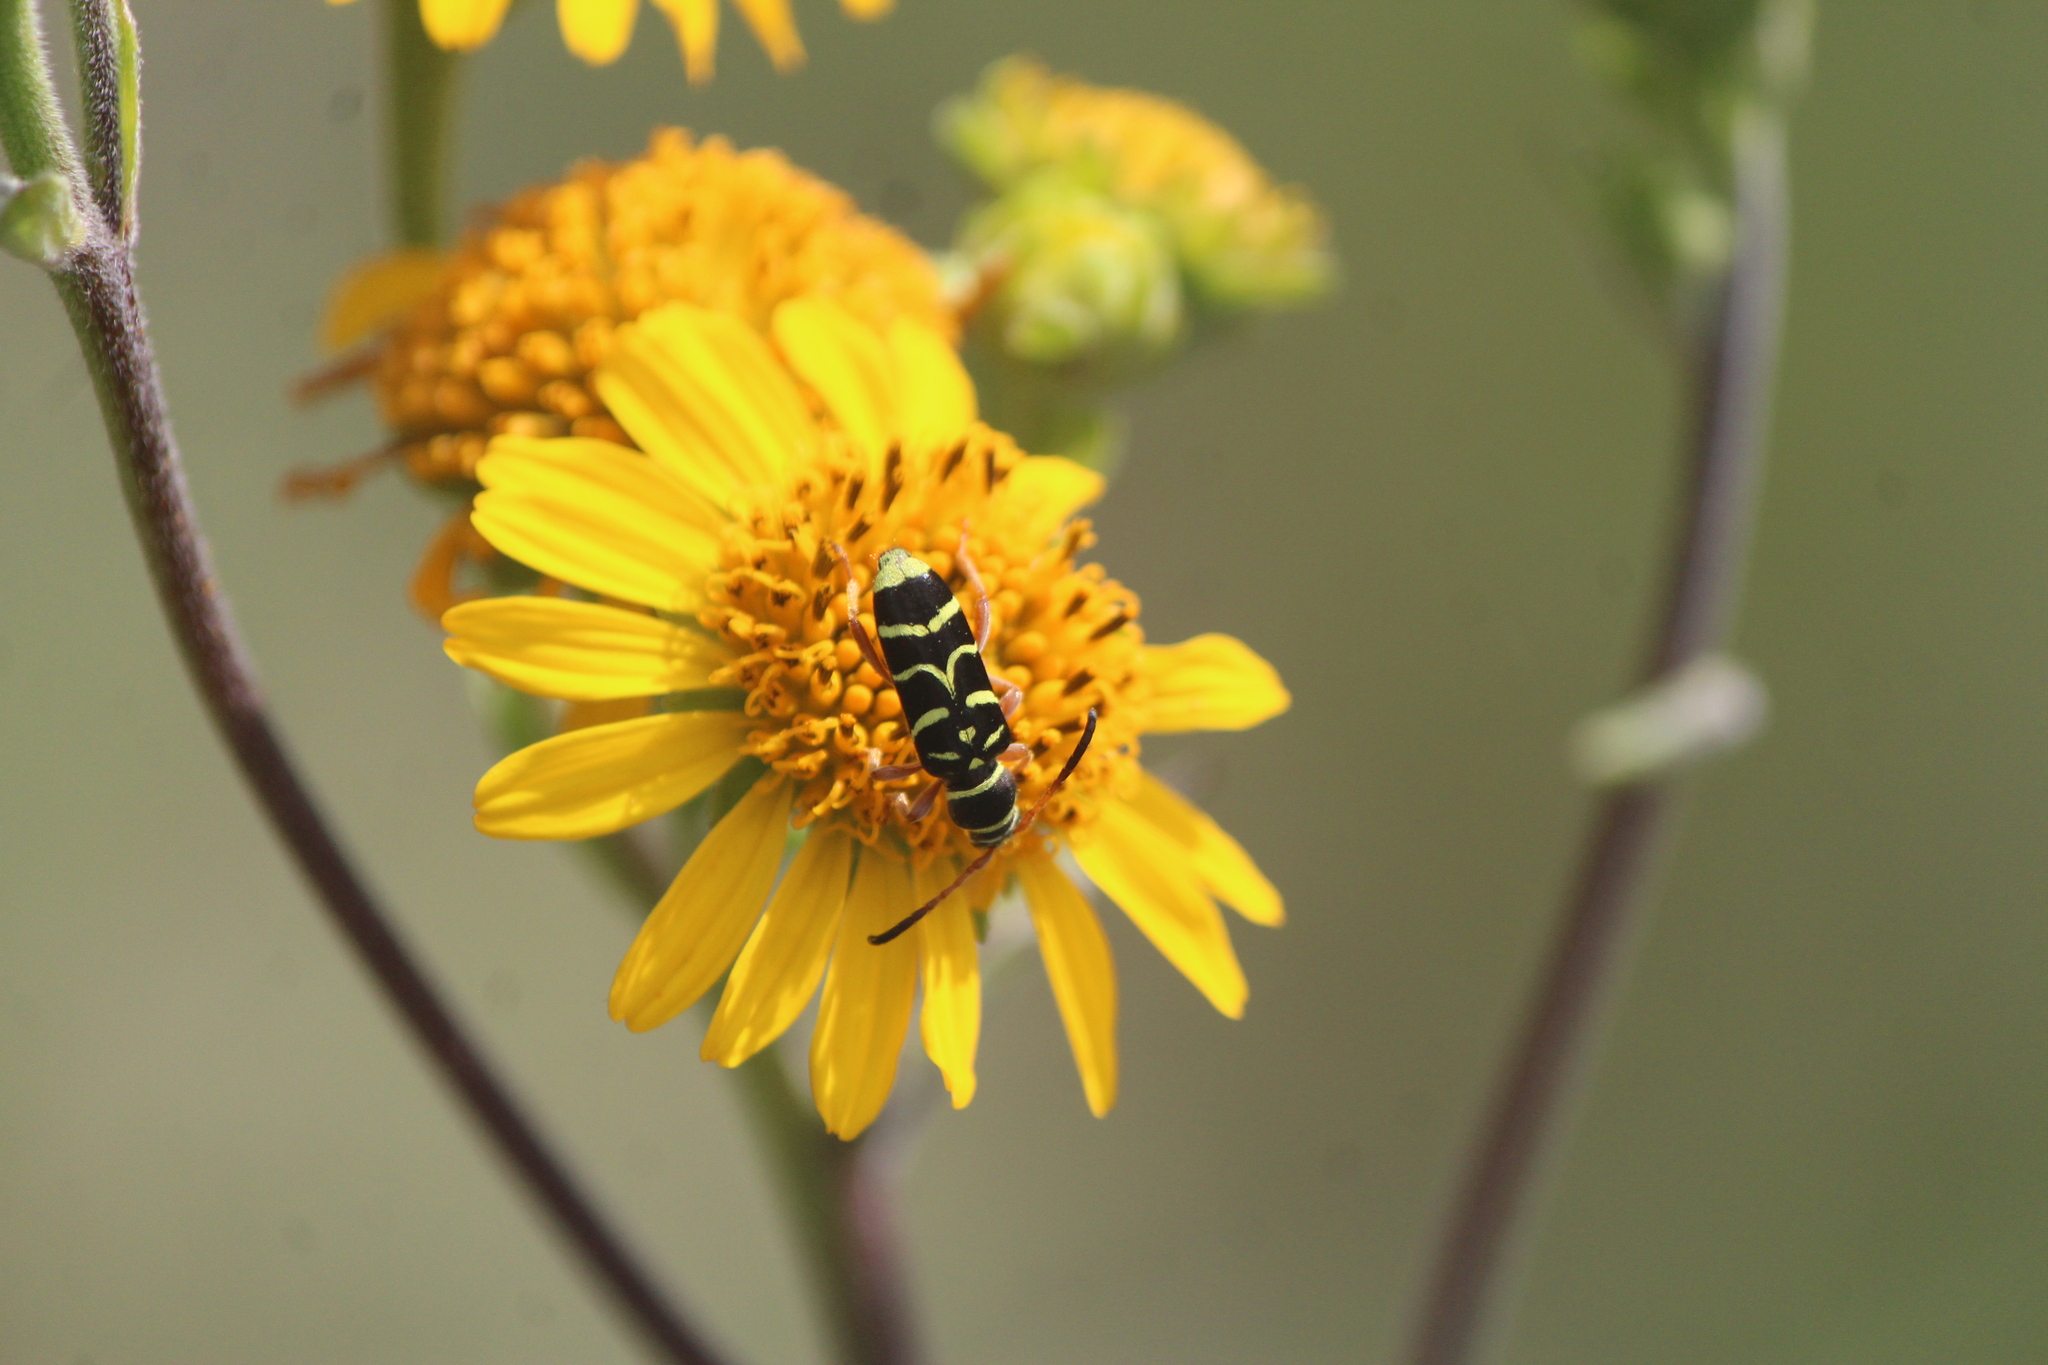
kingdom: Animalia
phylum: Arthropoda
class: Insecta
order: Coleoptera
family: Cerambycidae
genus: Ochraethes
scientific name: Ochraethes dimidiaticornis
